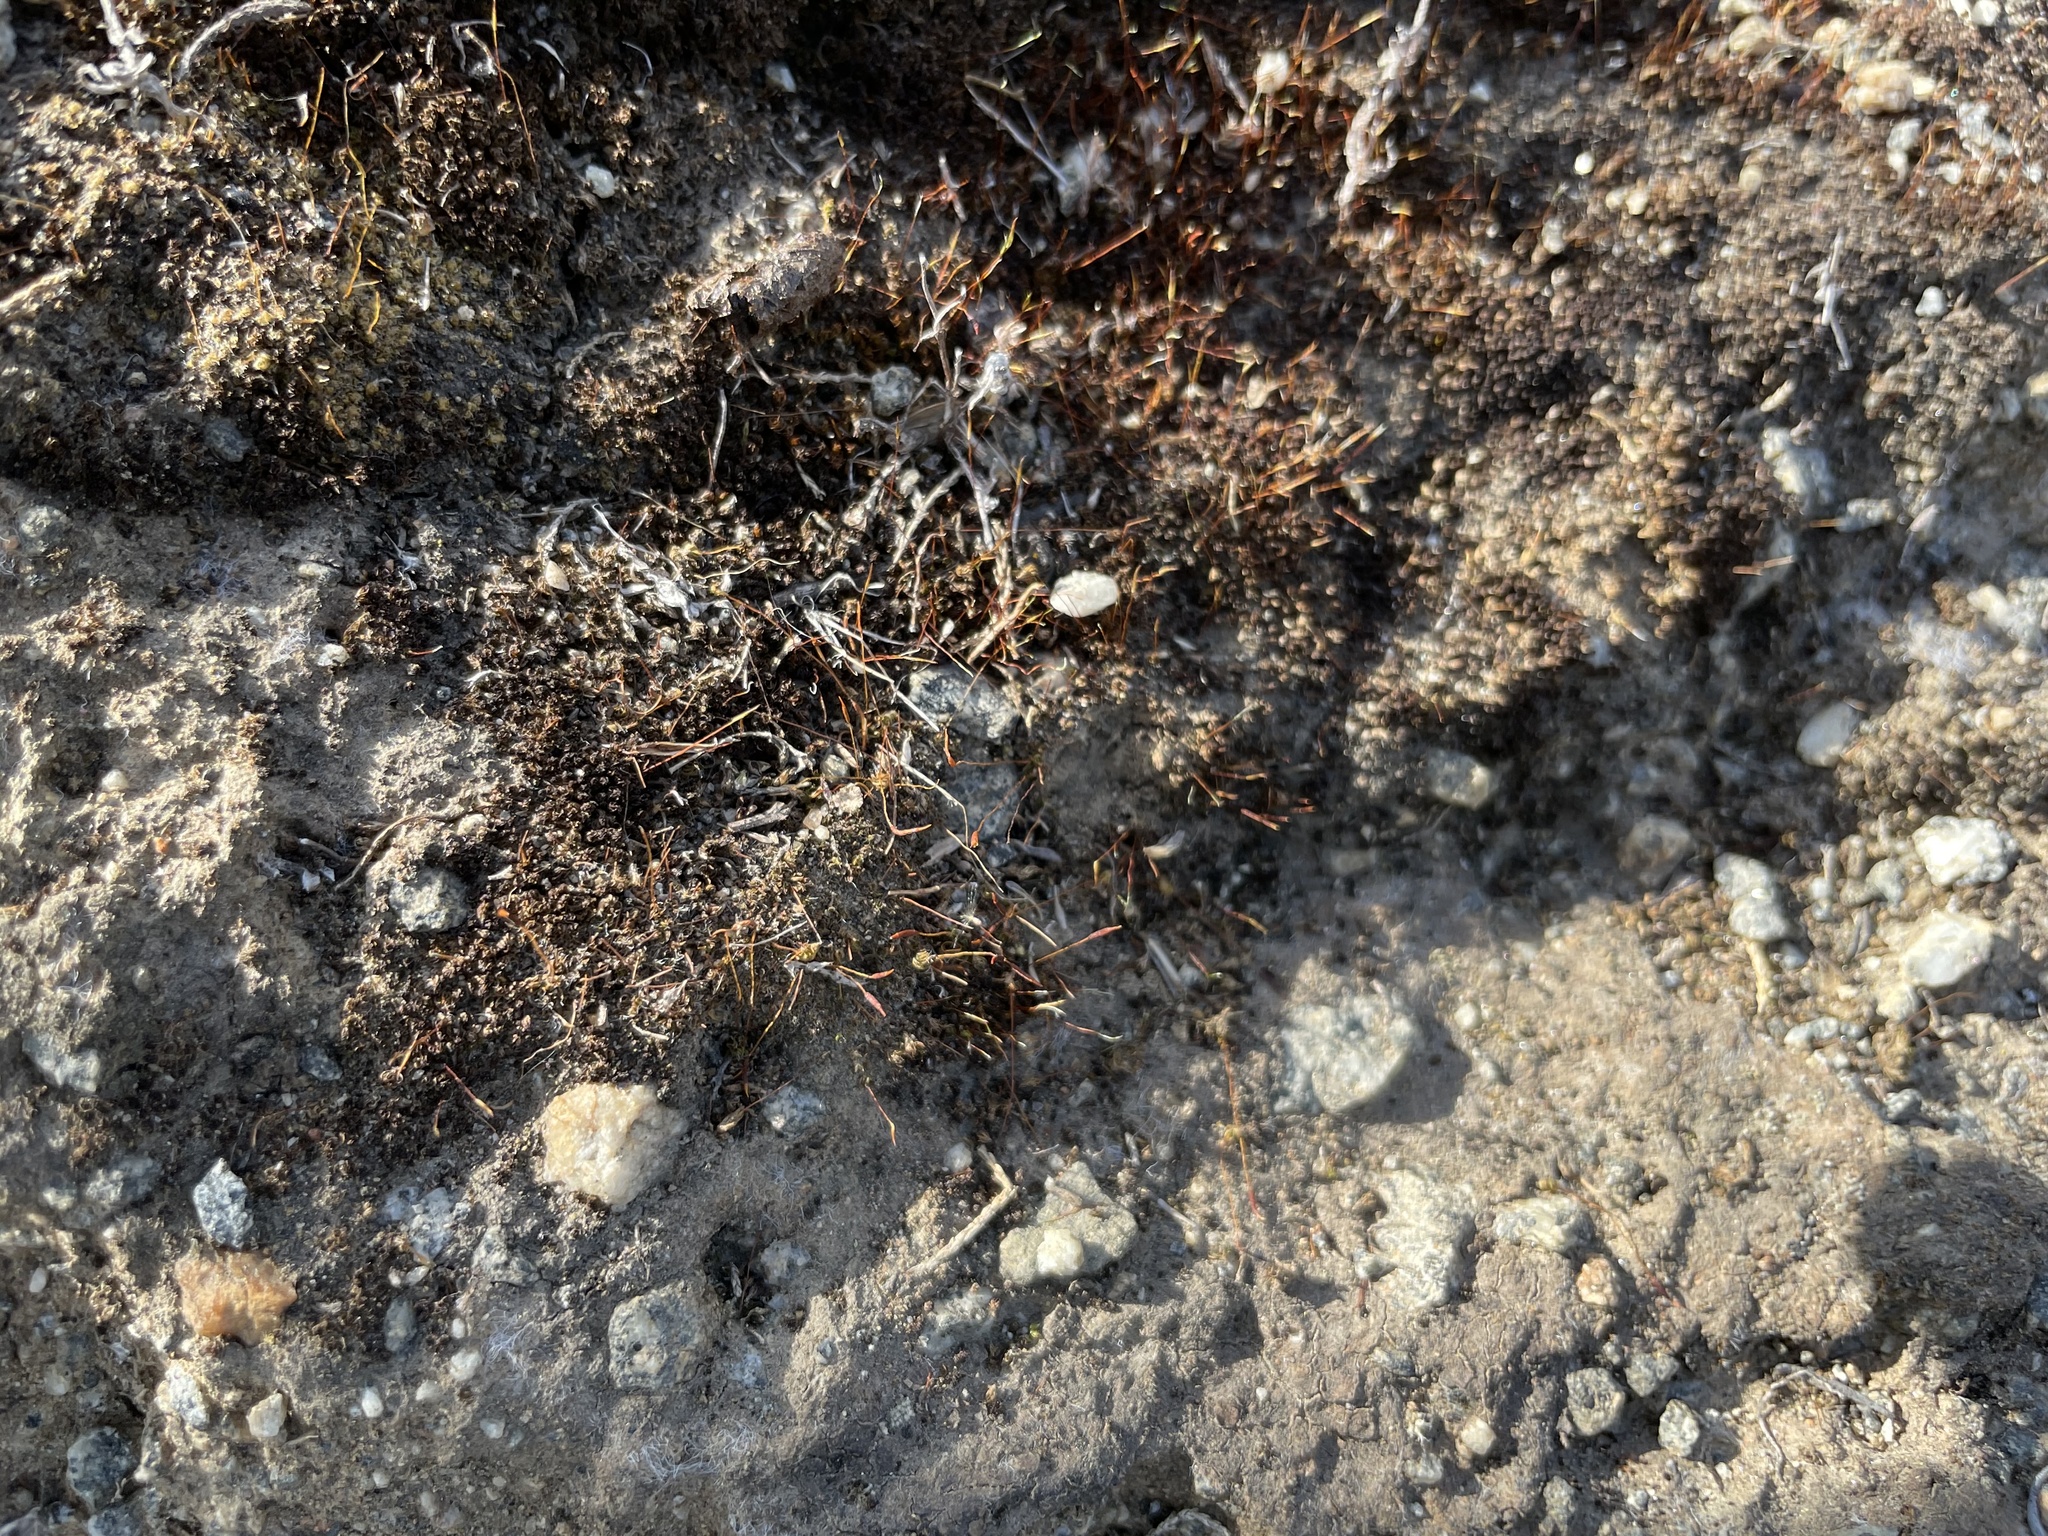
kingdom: Plantae
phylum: Bryophyta
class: Bryopsida
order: Pottiales
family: Pottiaceae
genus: Tortula
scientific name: Tortula muralis
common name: Wall screw-moss
